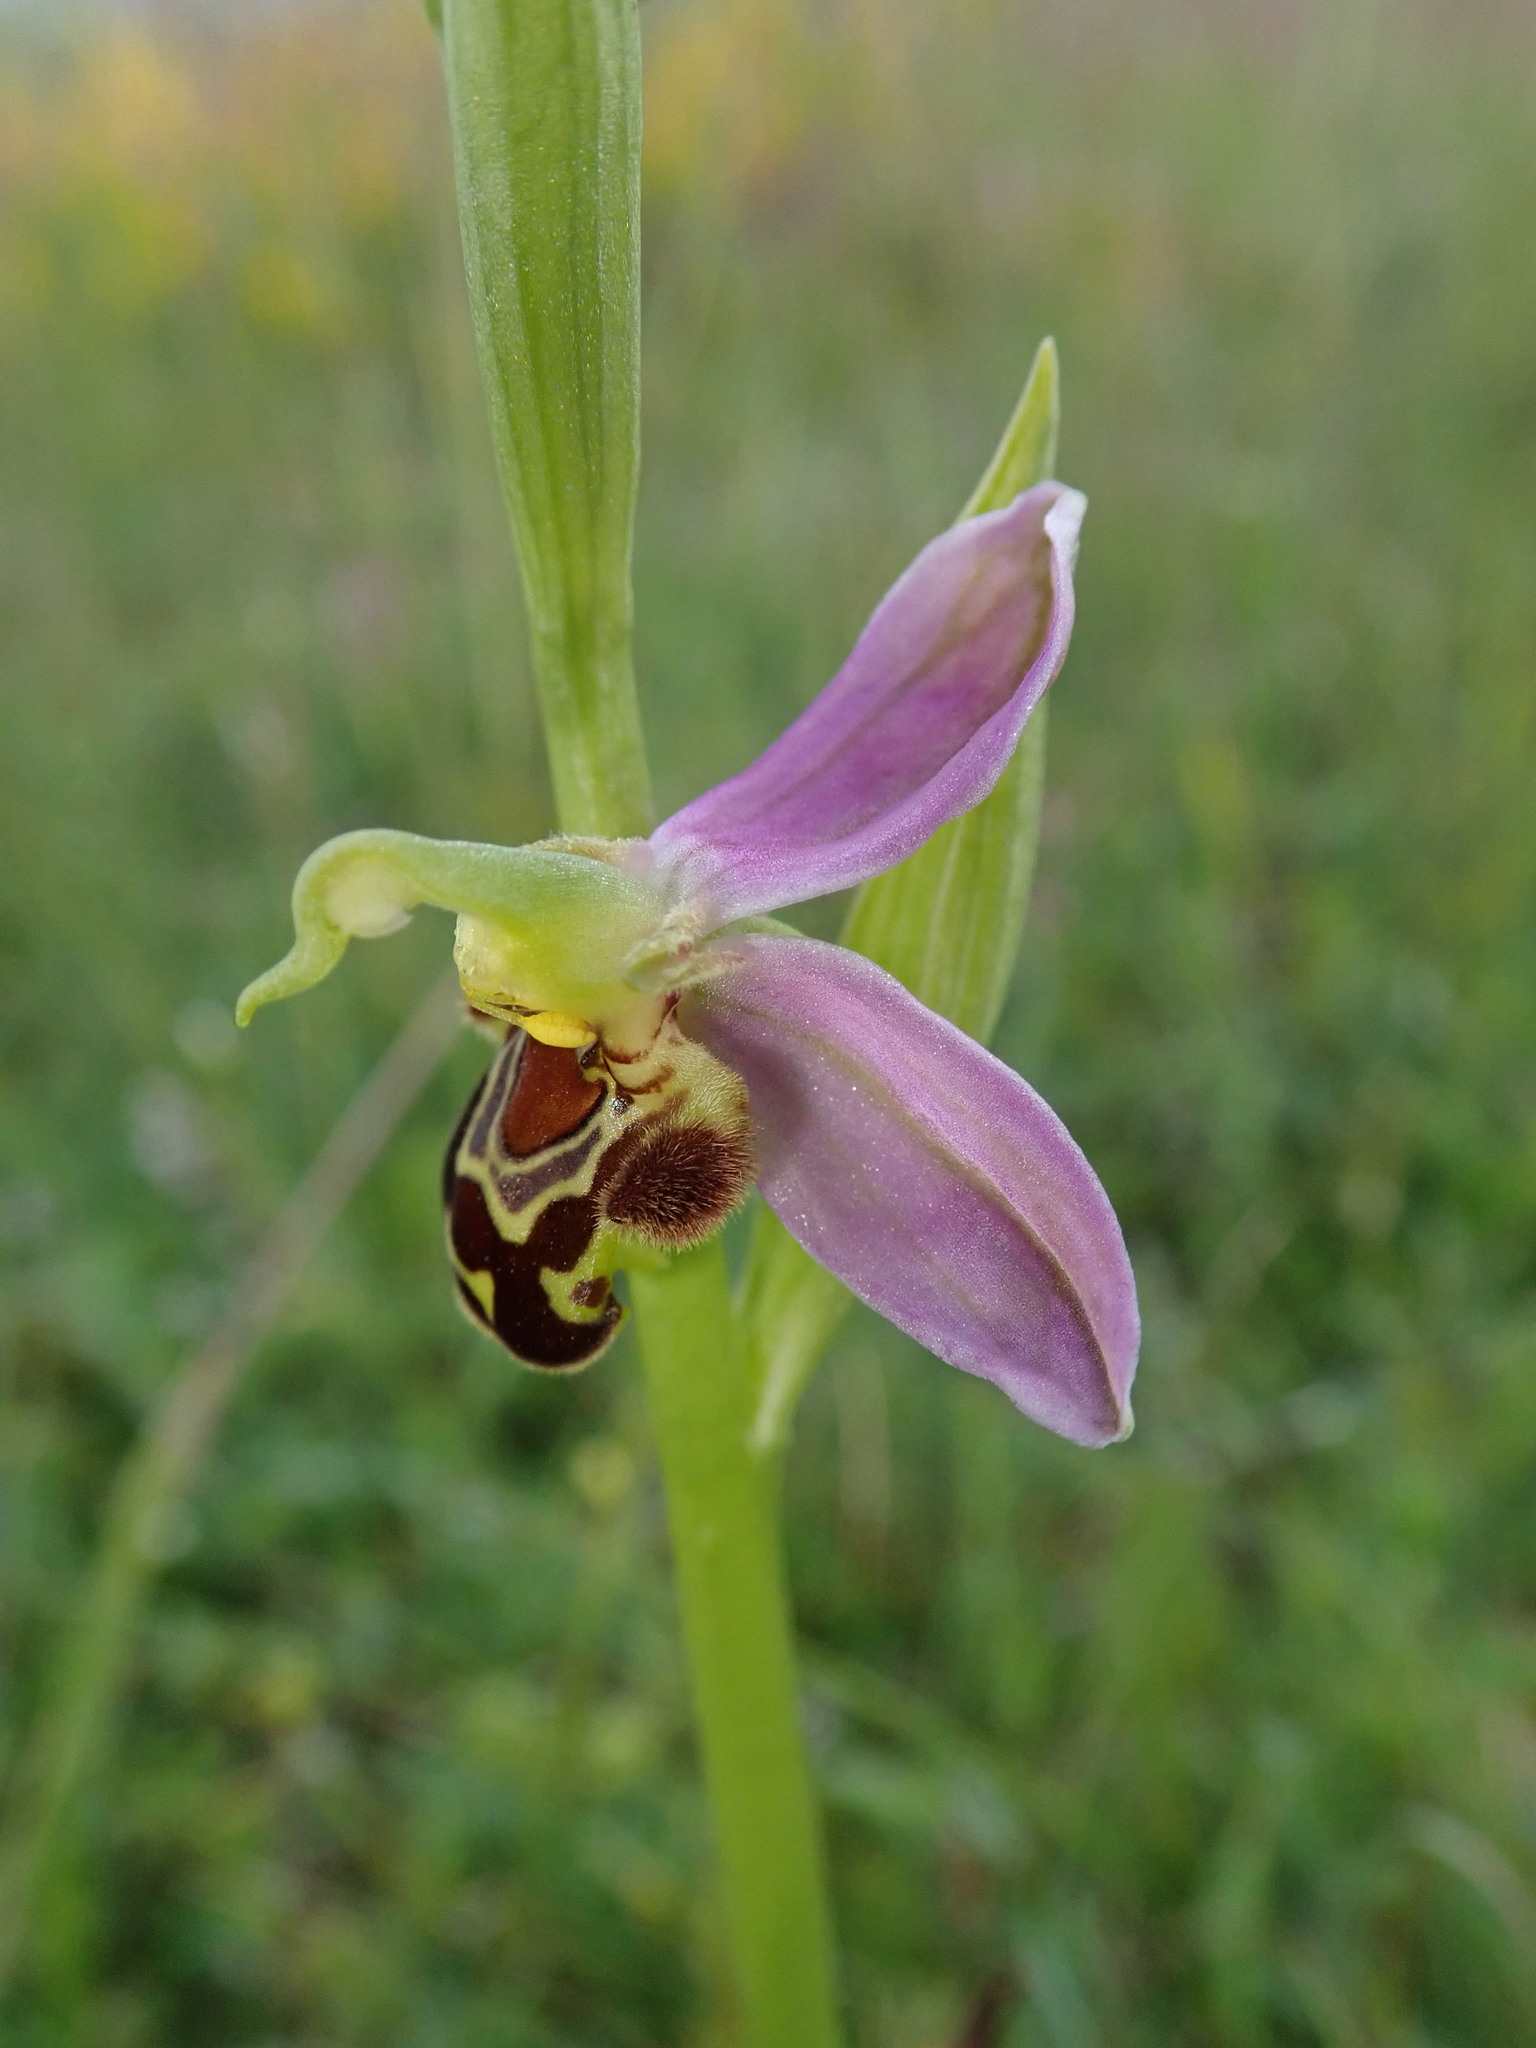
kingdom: Plantae
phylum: Tracheophyta
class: Liliopsida
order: Asparagales
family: Orchidaceae
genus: Ophrys
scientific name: Ophrys apifera
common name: Bee orchid
